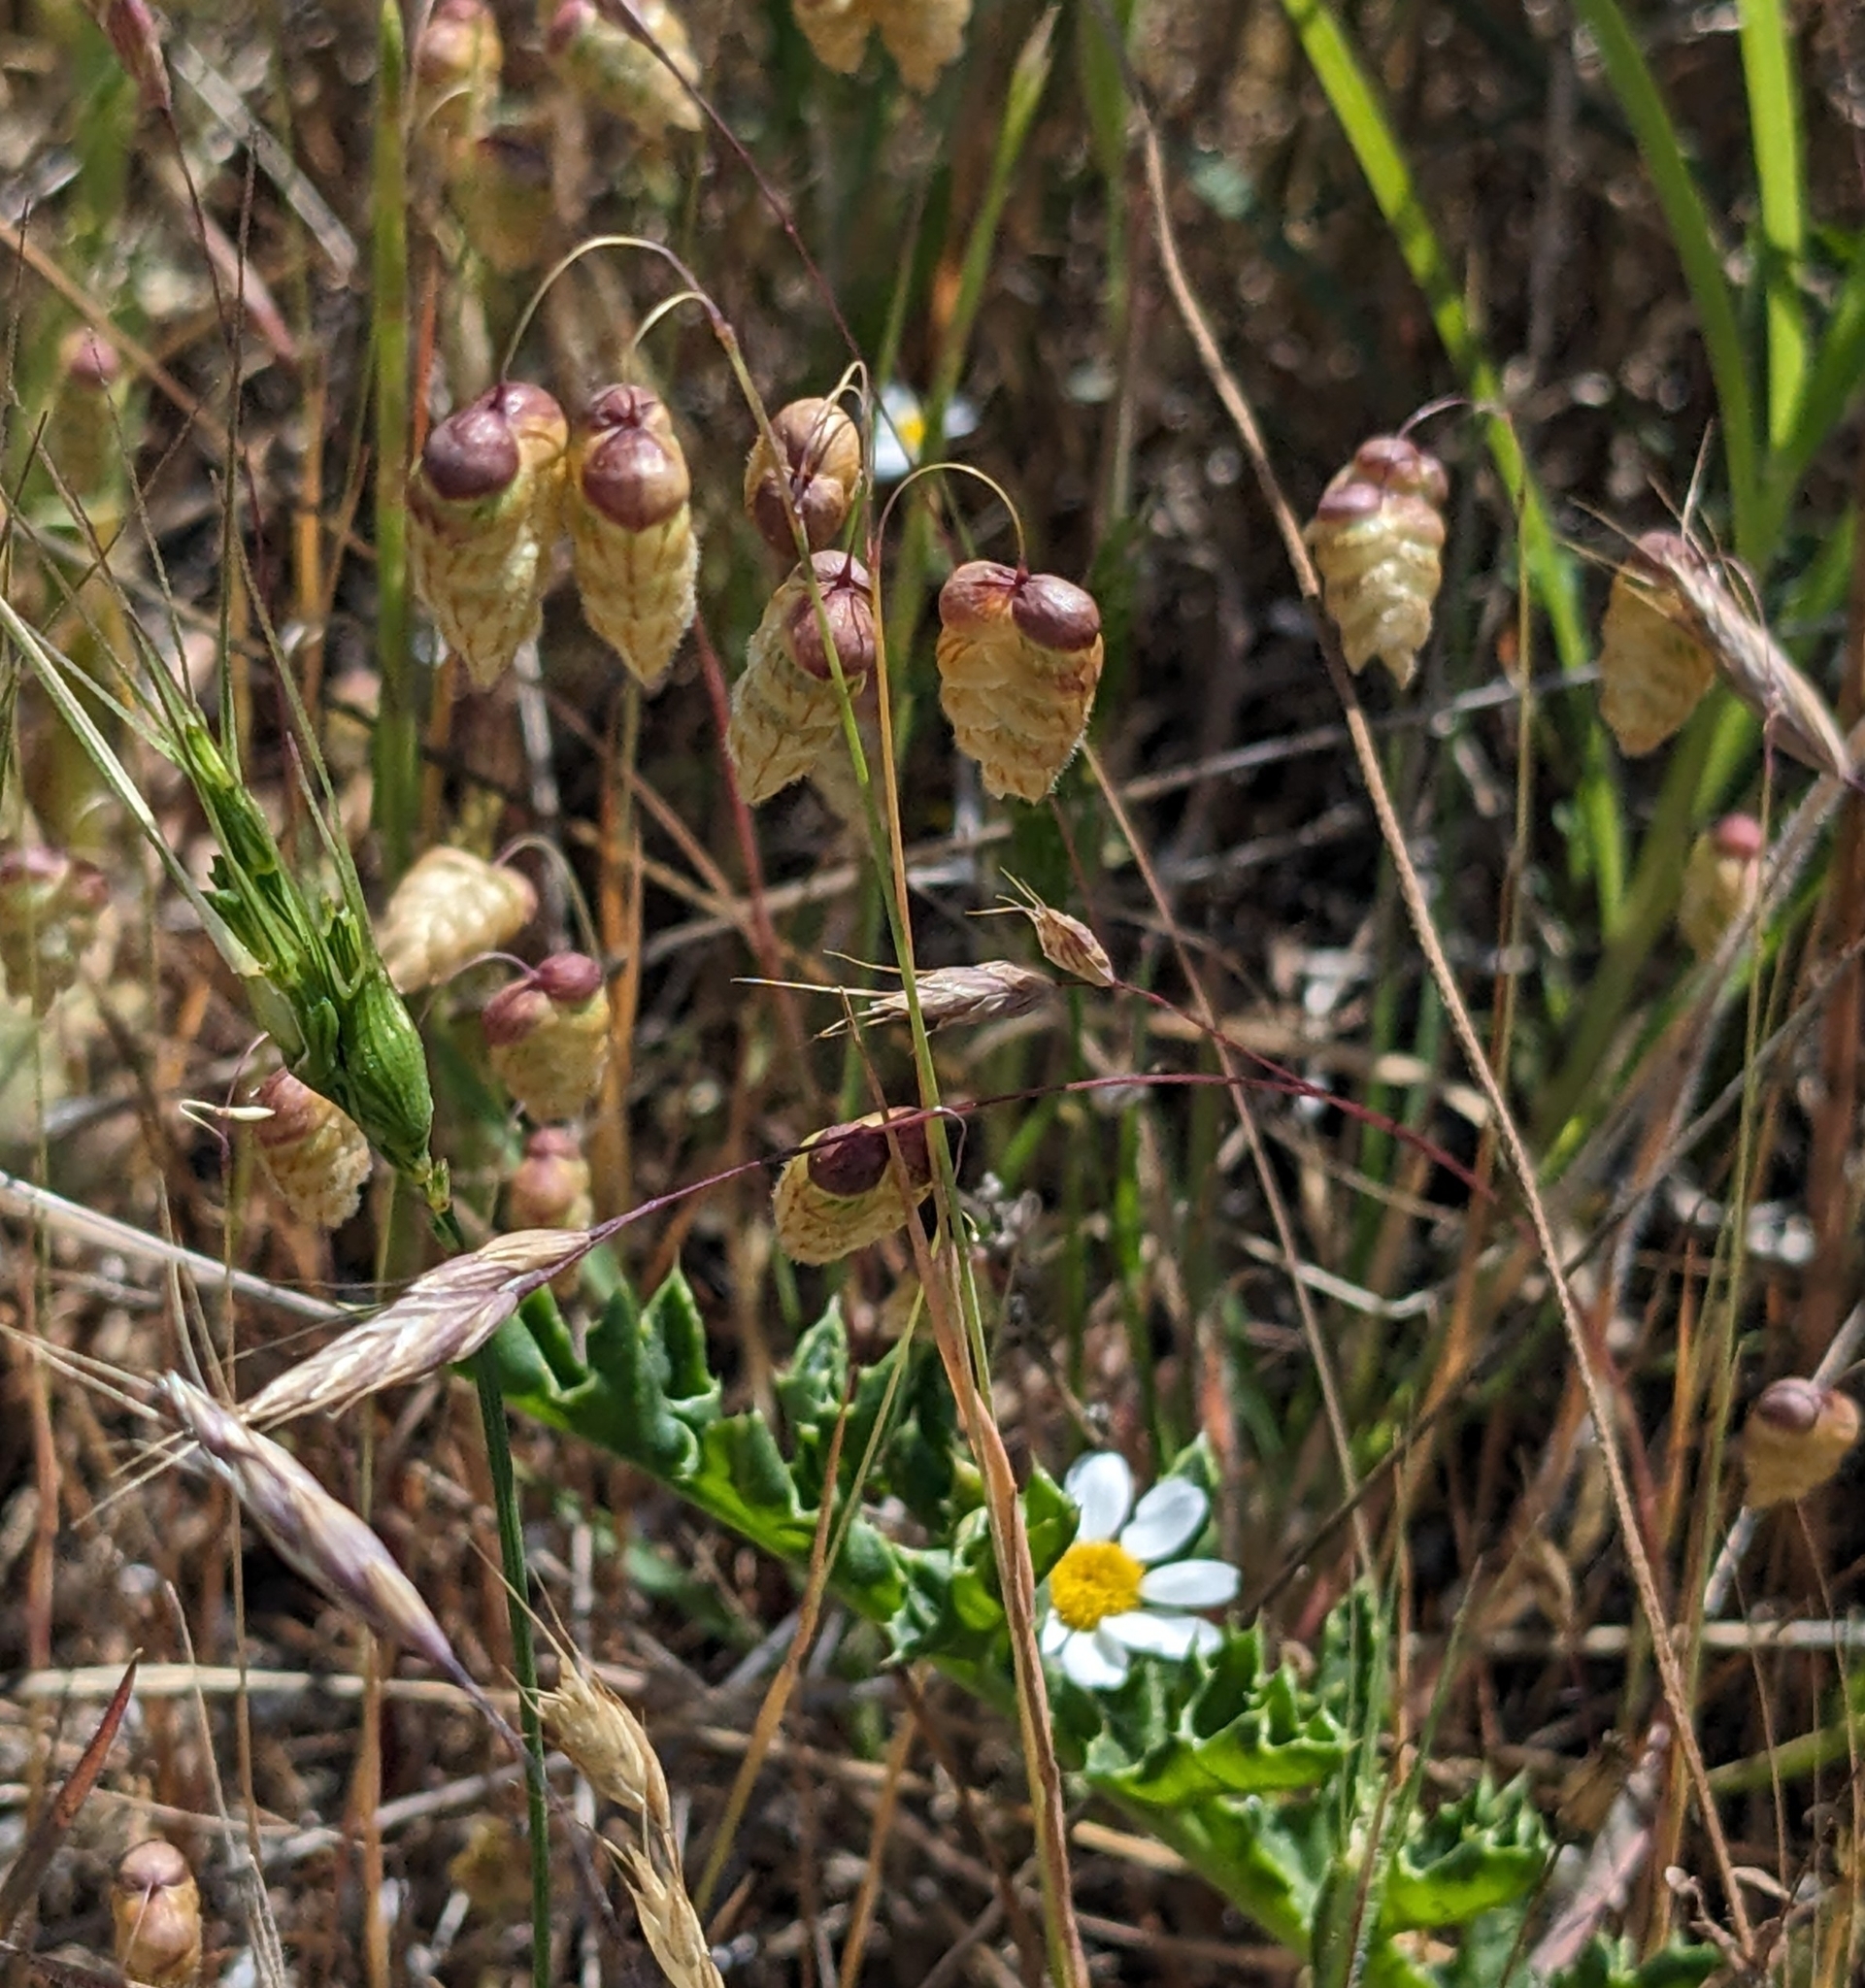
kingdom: Plantae
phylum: Tracheophyta
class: Liliopsida
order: Poales
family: Poaceae
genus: Briza
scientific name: Briza maxima
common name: Big quakinggrass
